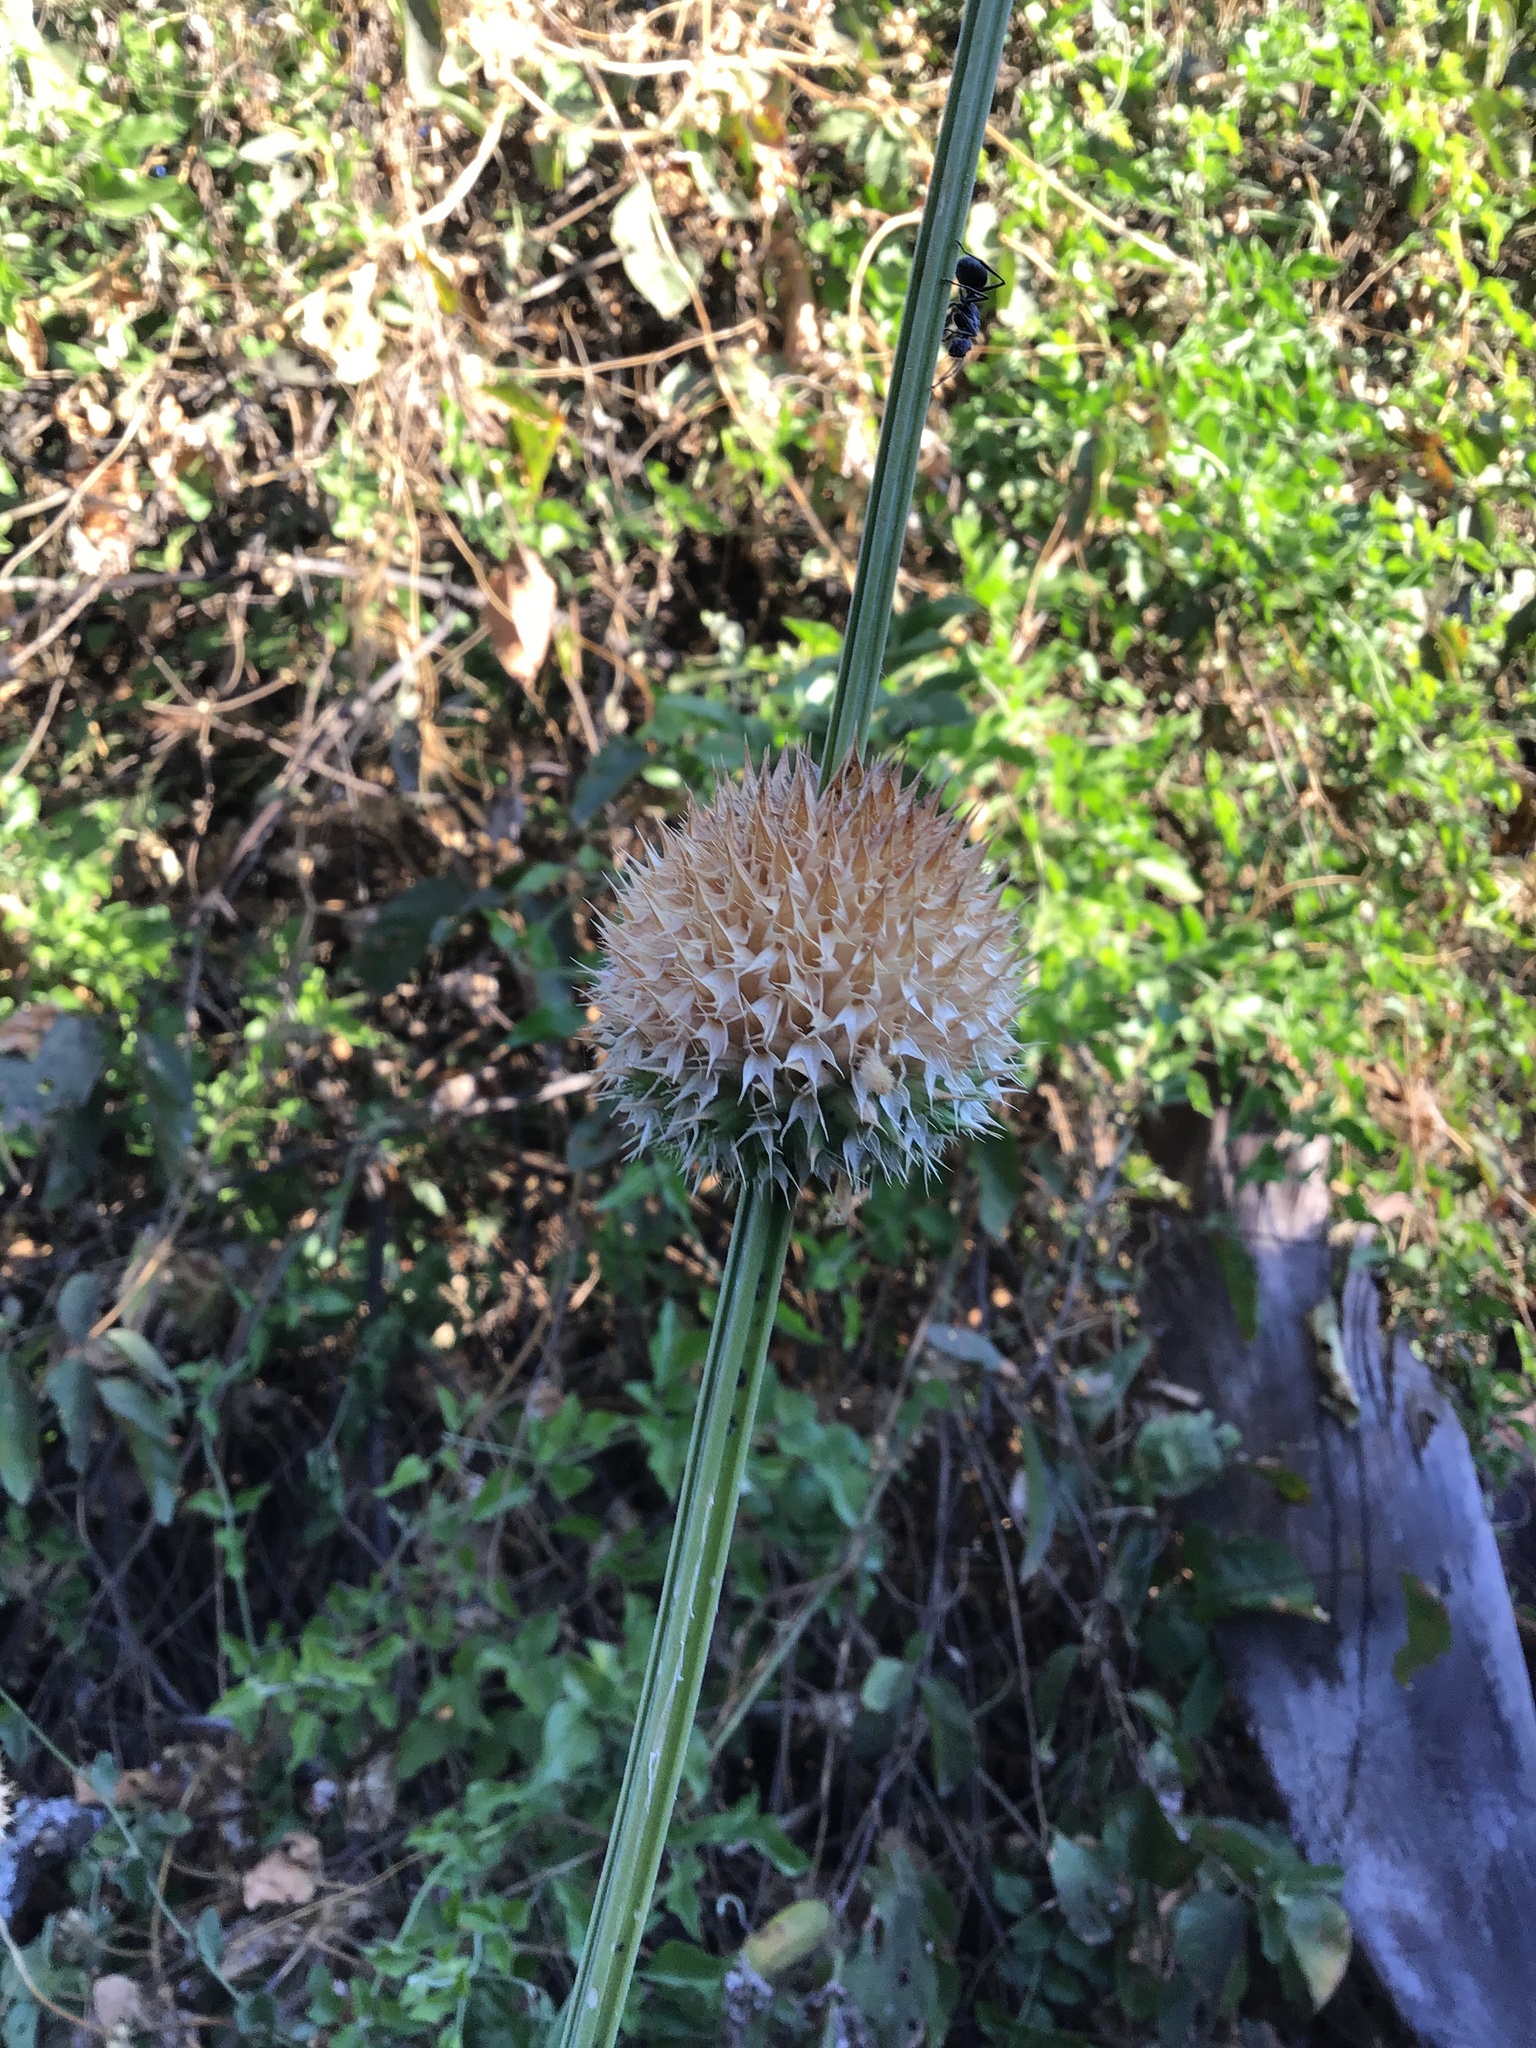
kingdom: Plantae
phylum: Tracheophyta
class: Magnoliopsida
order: Lamiales
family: Lamiaceae
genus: Leonotis
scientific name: Leonotis nepetifolia
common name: Christmas candlestick
